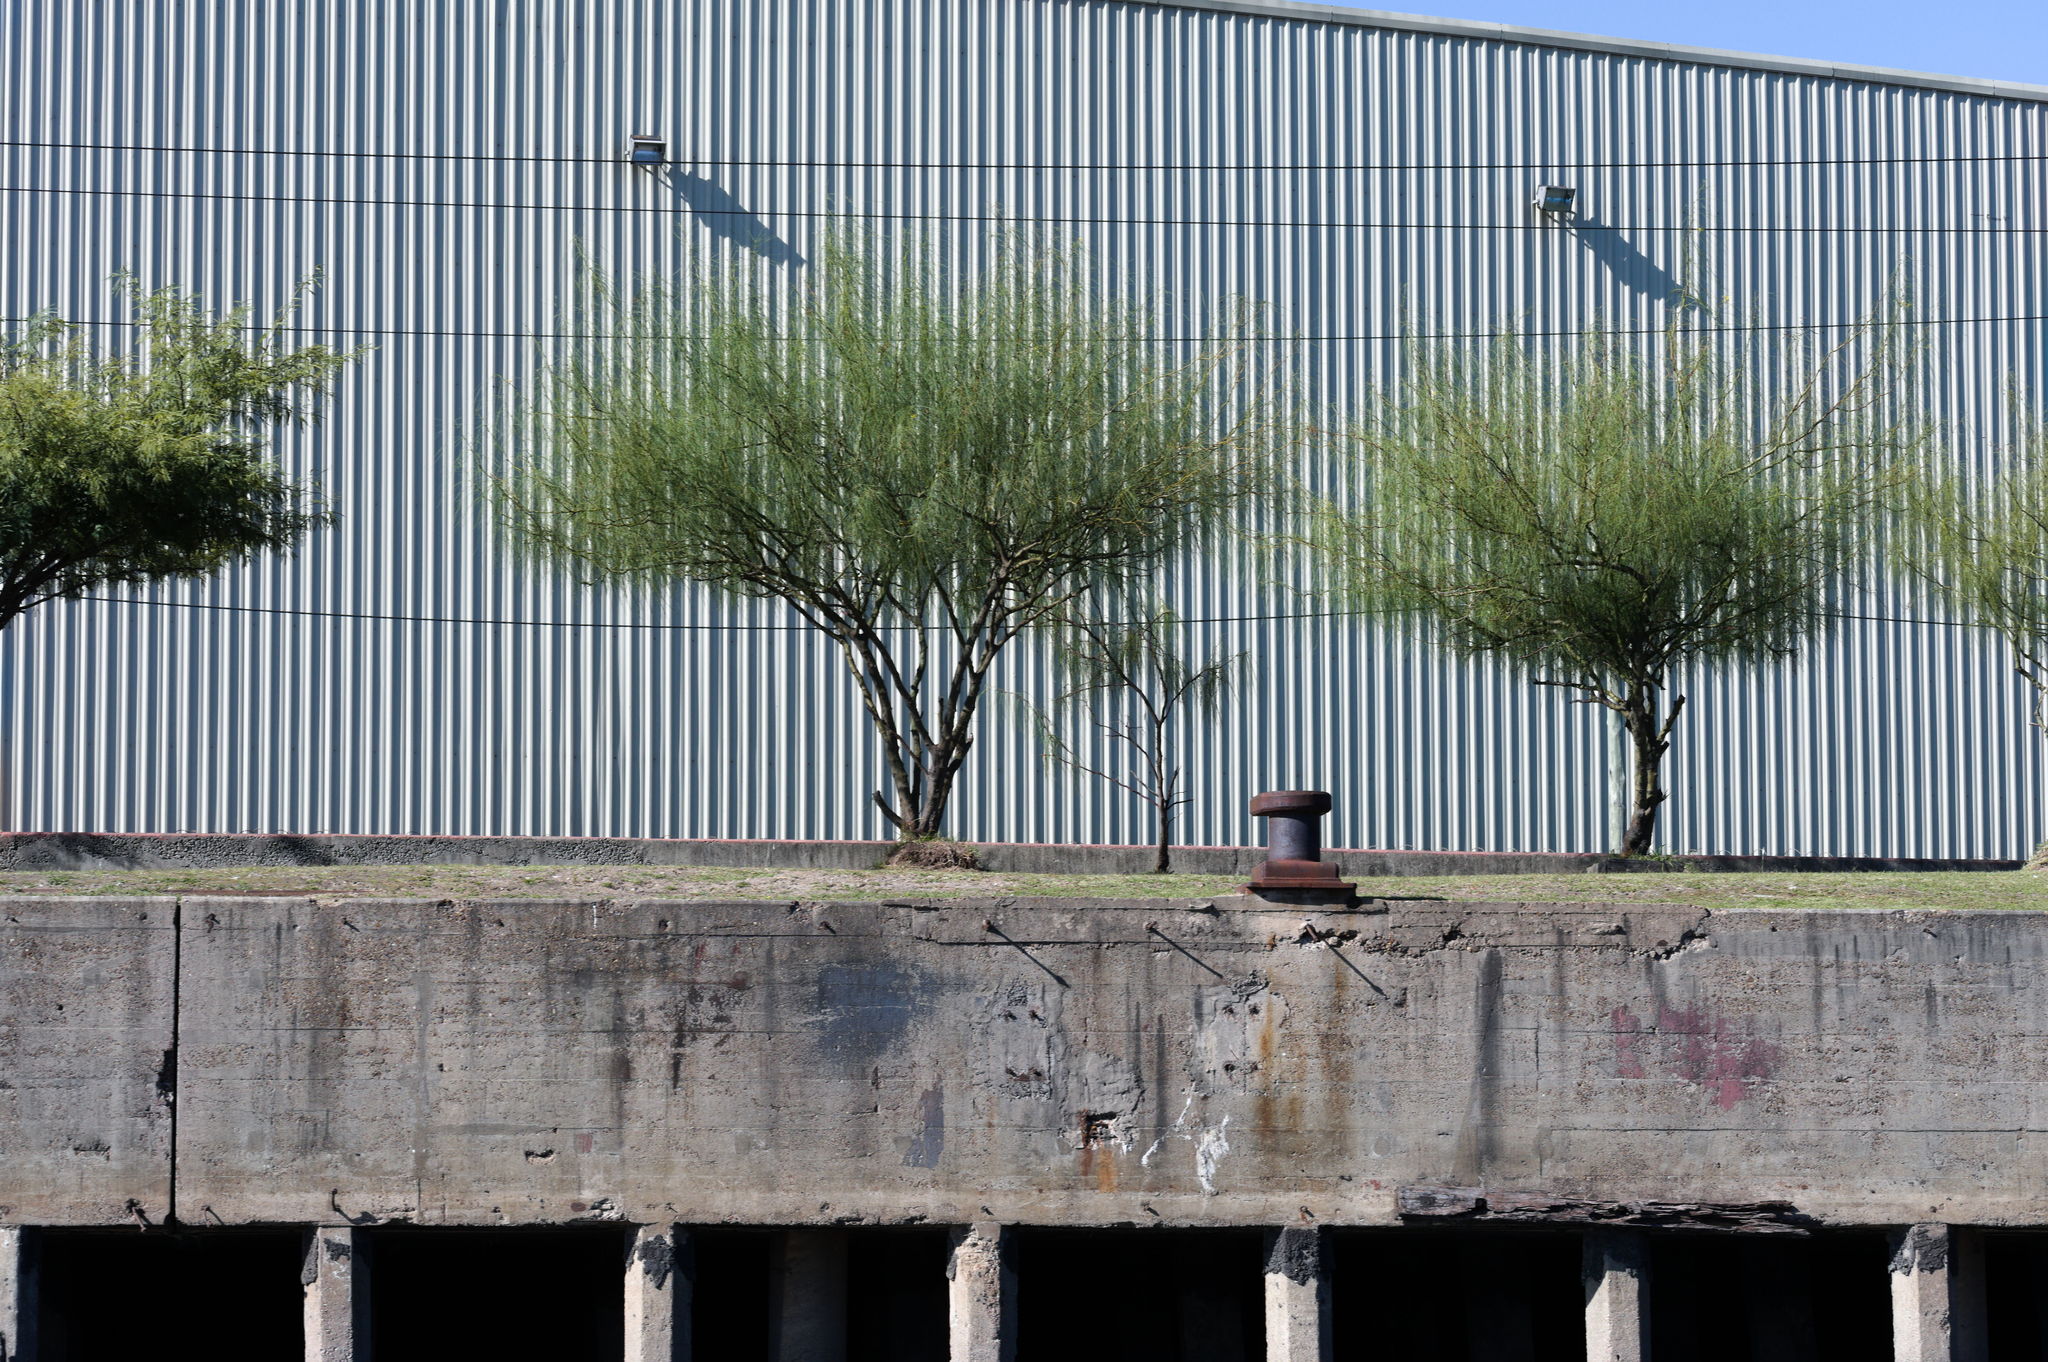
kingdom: Plantae
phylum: Tracheophyta
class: Magnoliopsida
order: Fabales
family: Fabaceae
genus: Parkinsonia
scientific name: Parkinsonia aculeata
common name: Jerusalem thorn
